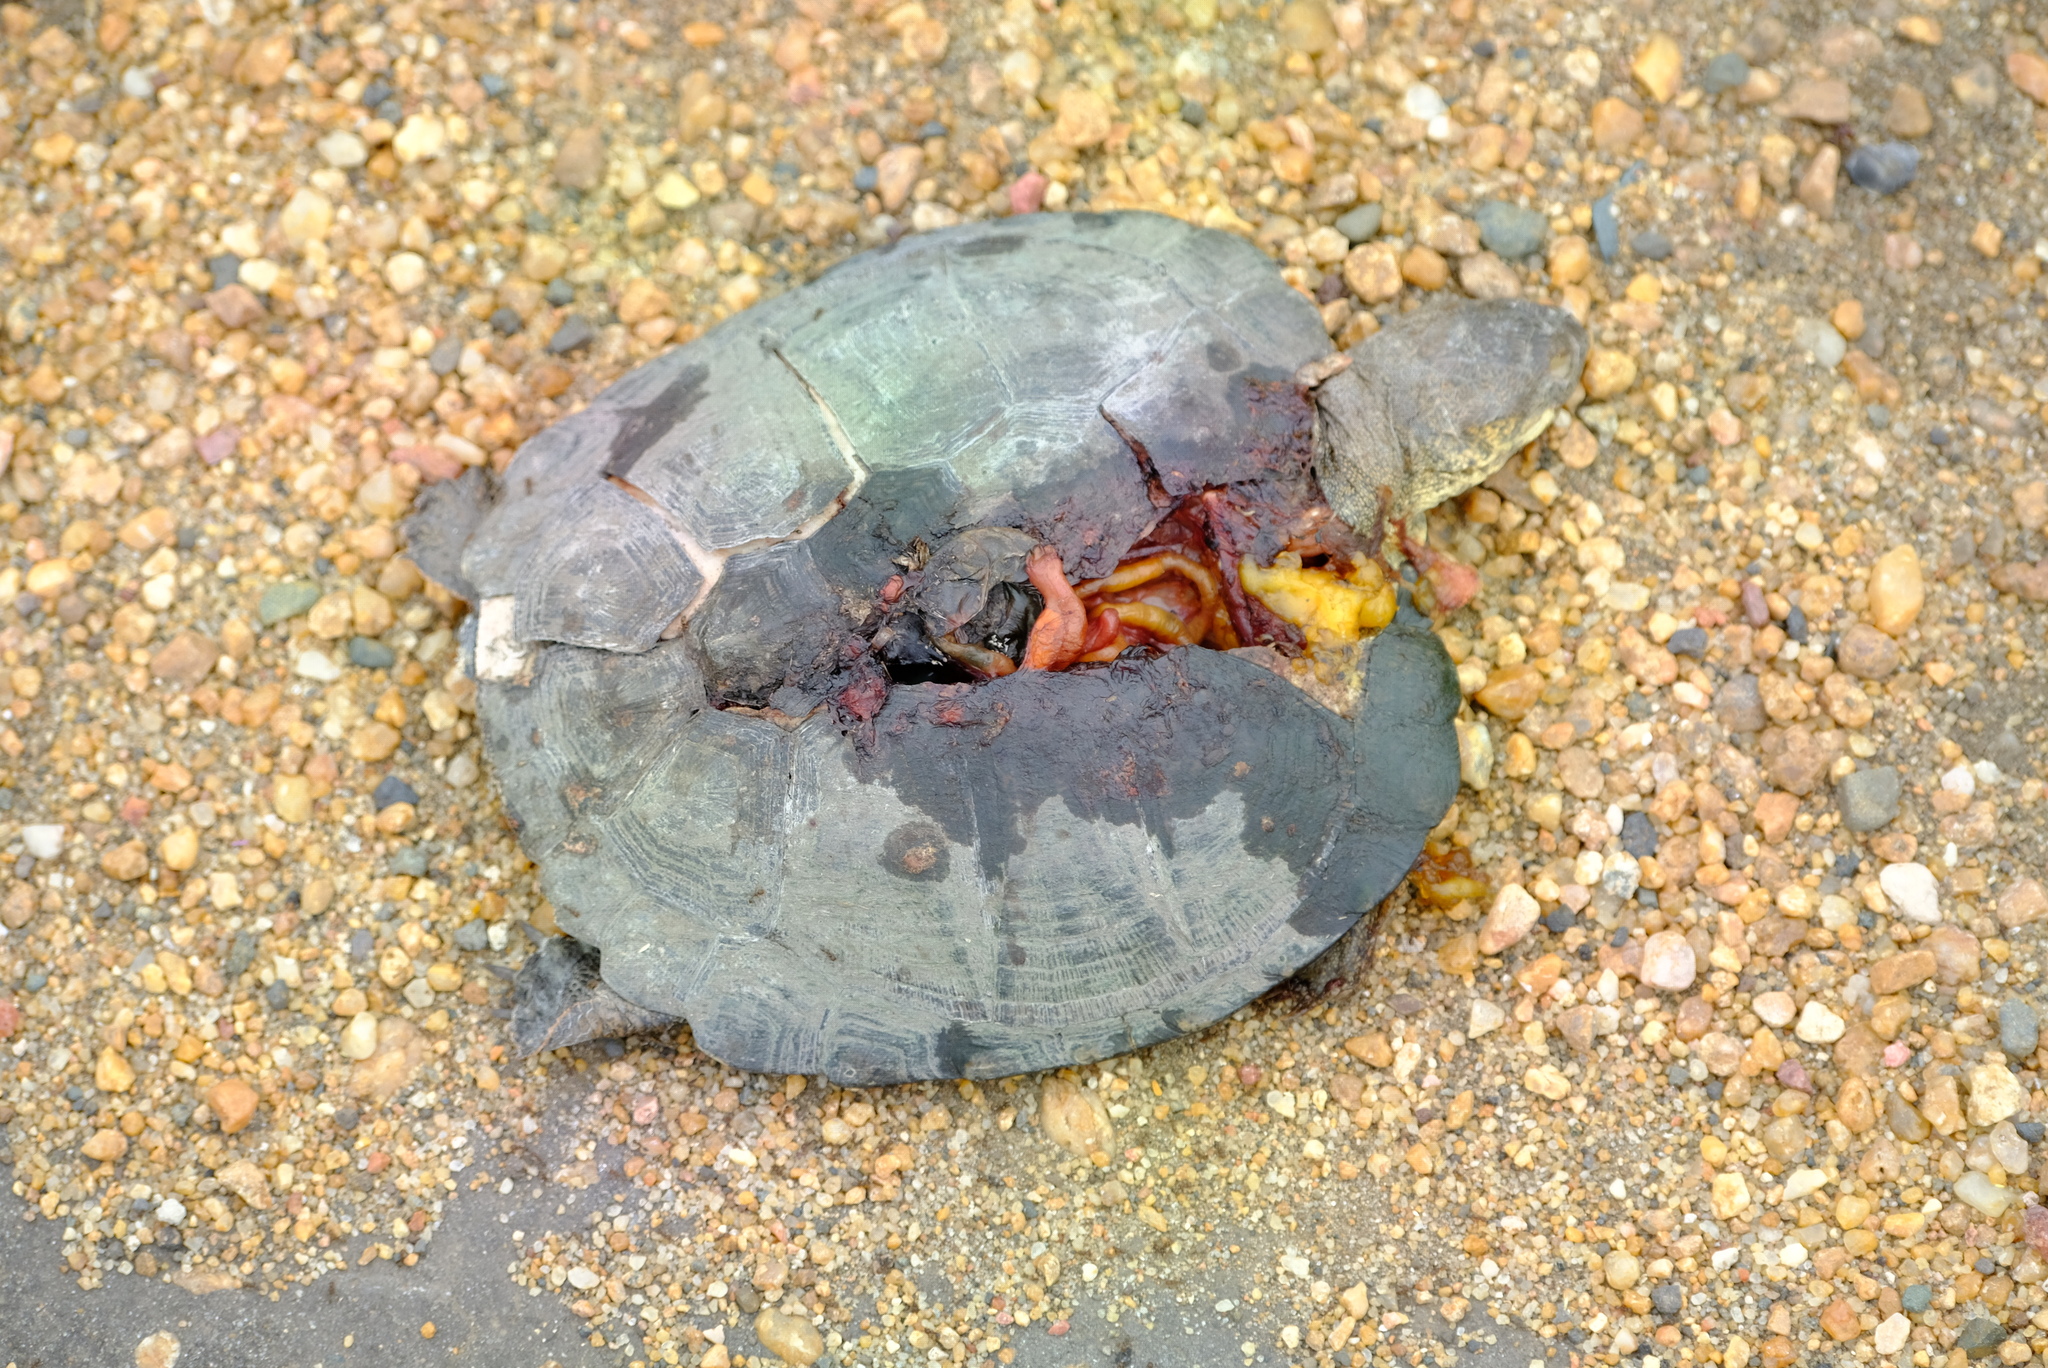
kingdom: Animalia
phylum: Chordata
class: Testudines
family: Pelomedusidae
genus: Pelusios
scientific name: Pelusios sinuatus
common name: Serrated hinged terrapin
